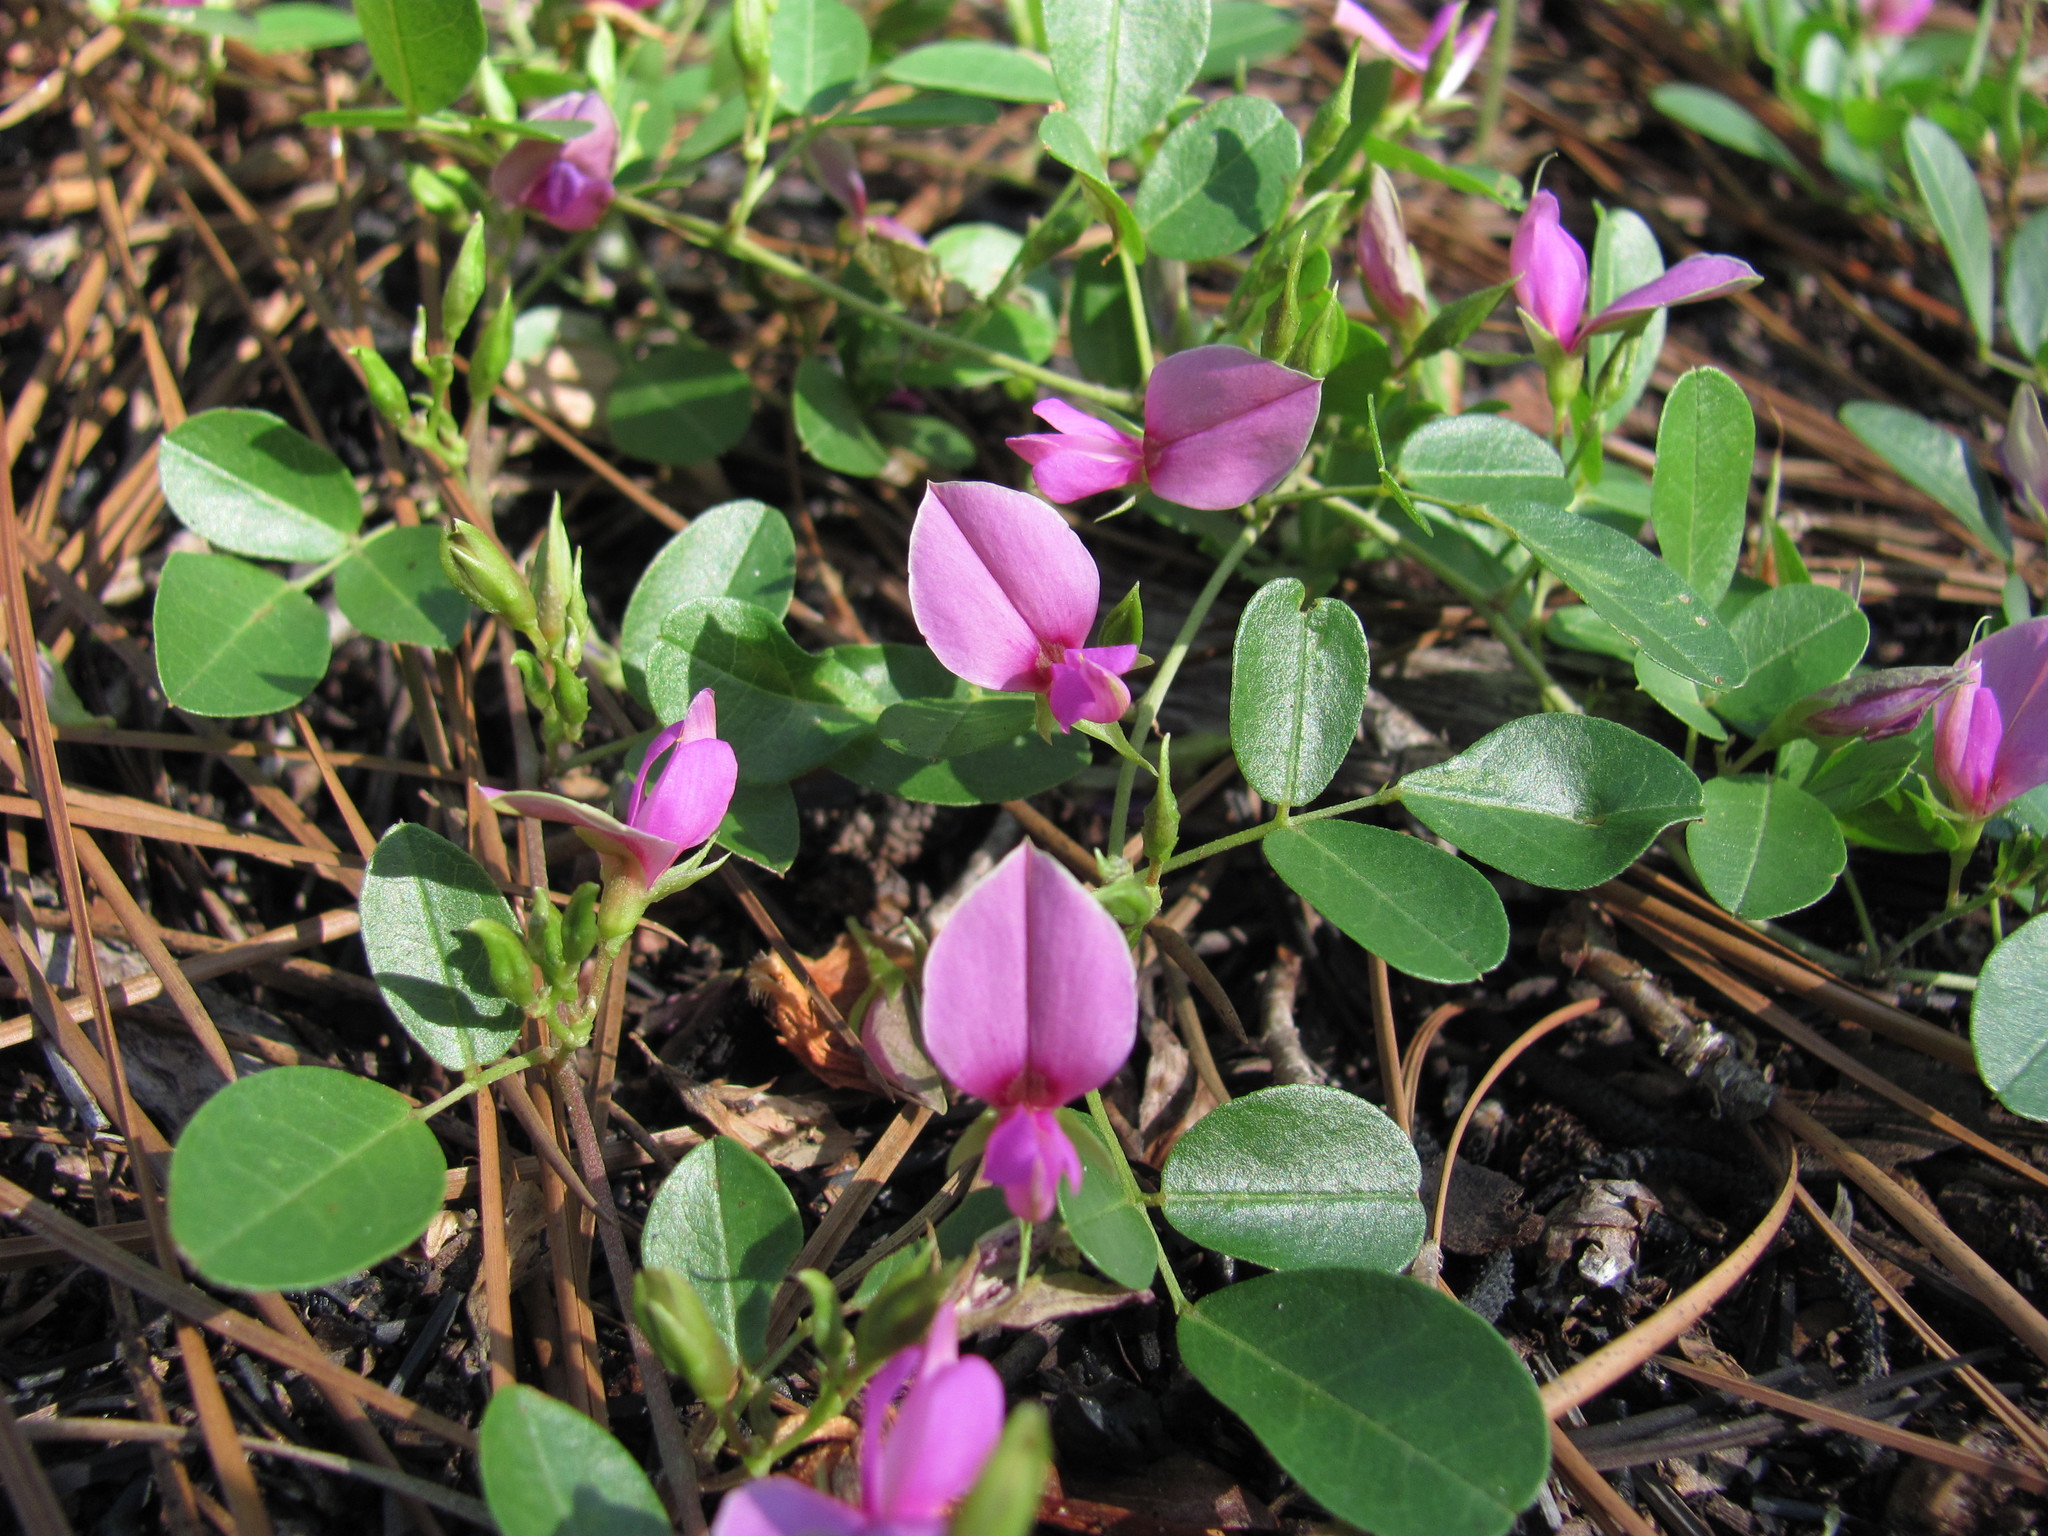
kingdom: Plantae
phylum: Tracheophyta
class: Magnoliopsida
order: Fabales
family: Fabaceae
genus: Galactia
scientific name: Galactia microphylla
